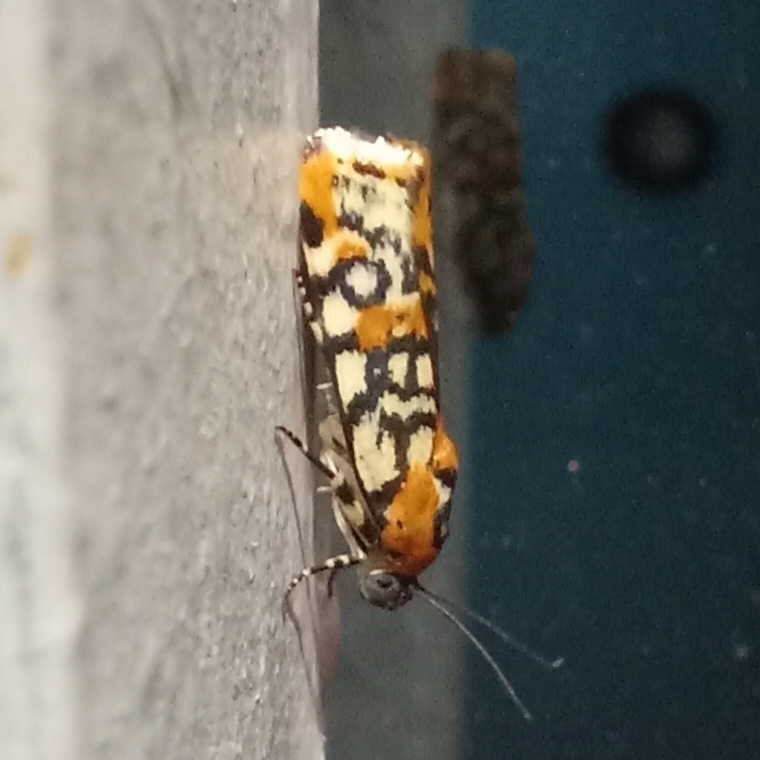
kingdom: Animalia
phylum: Arthropoda
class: Insecta
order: Lepidoptera
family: Noctuidae
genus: Spragueia
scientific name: Spragueia guttata
